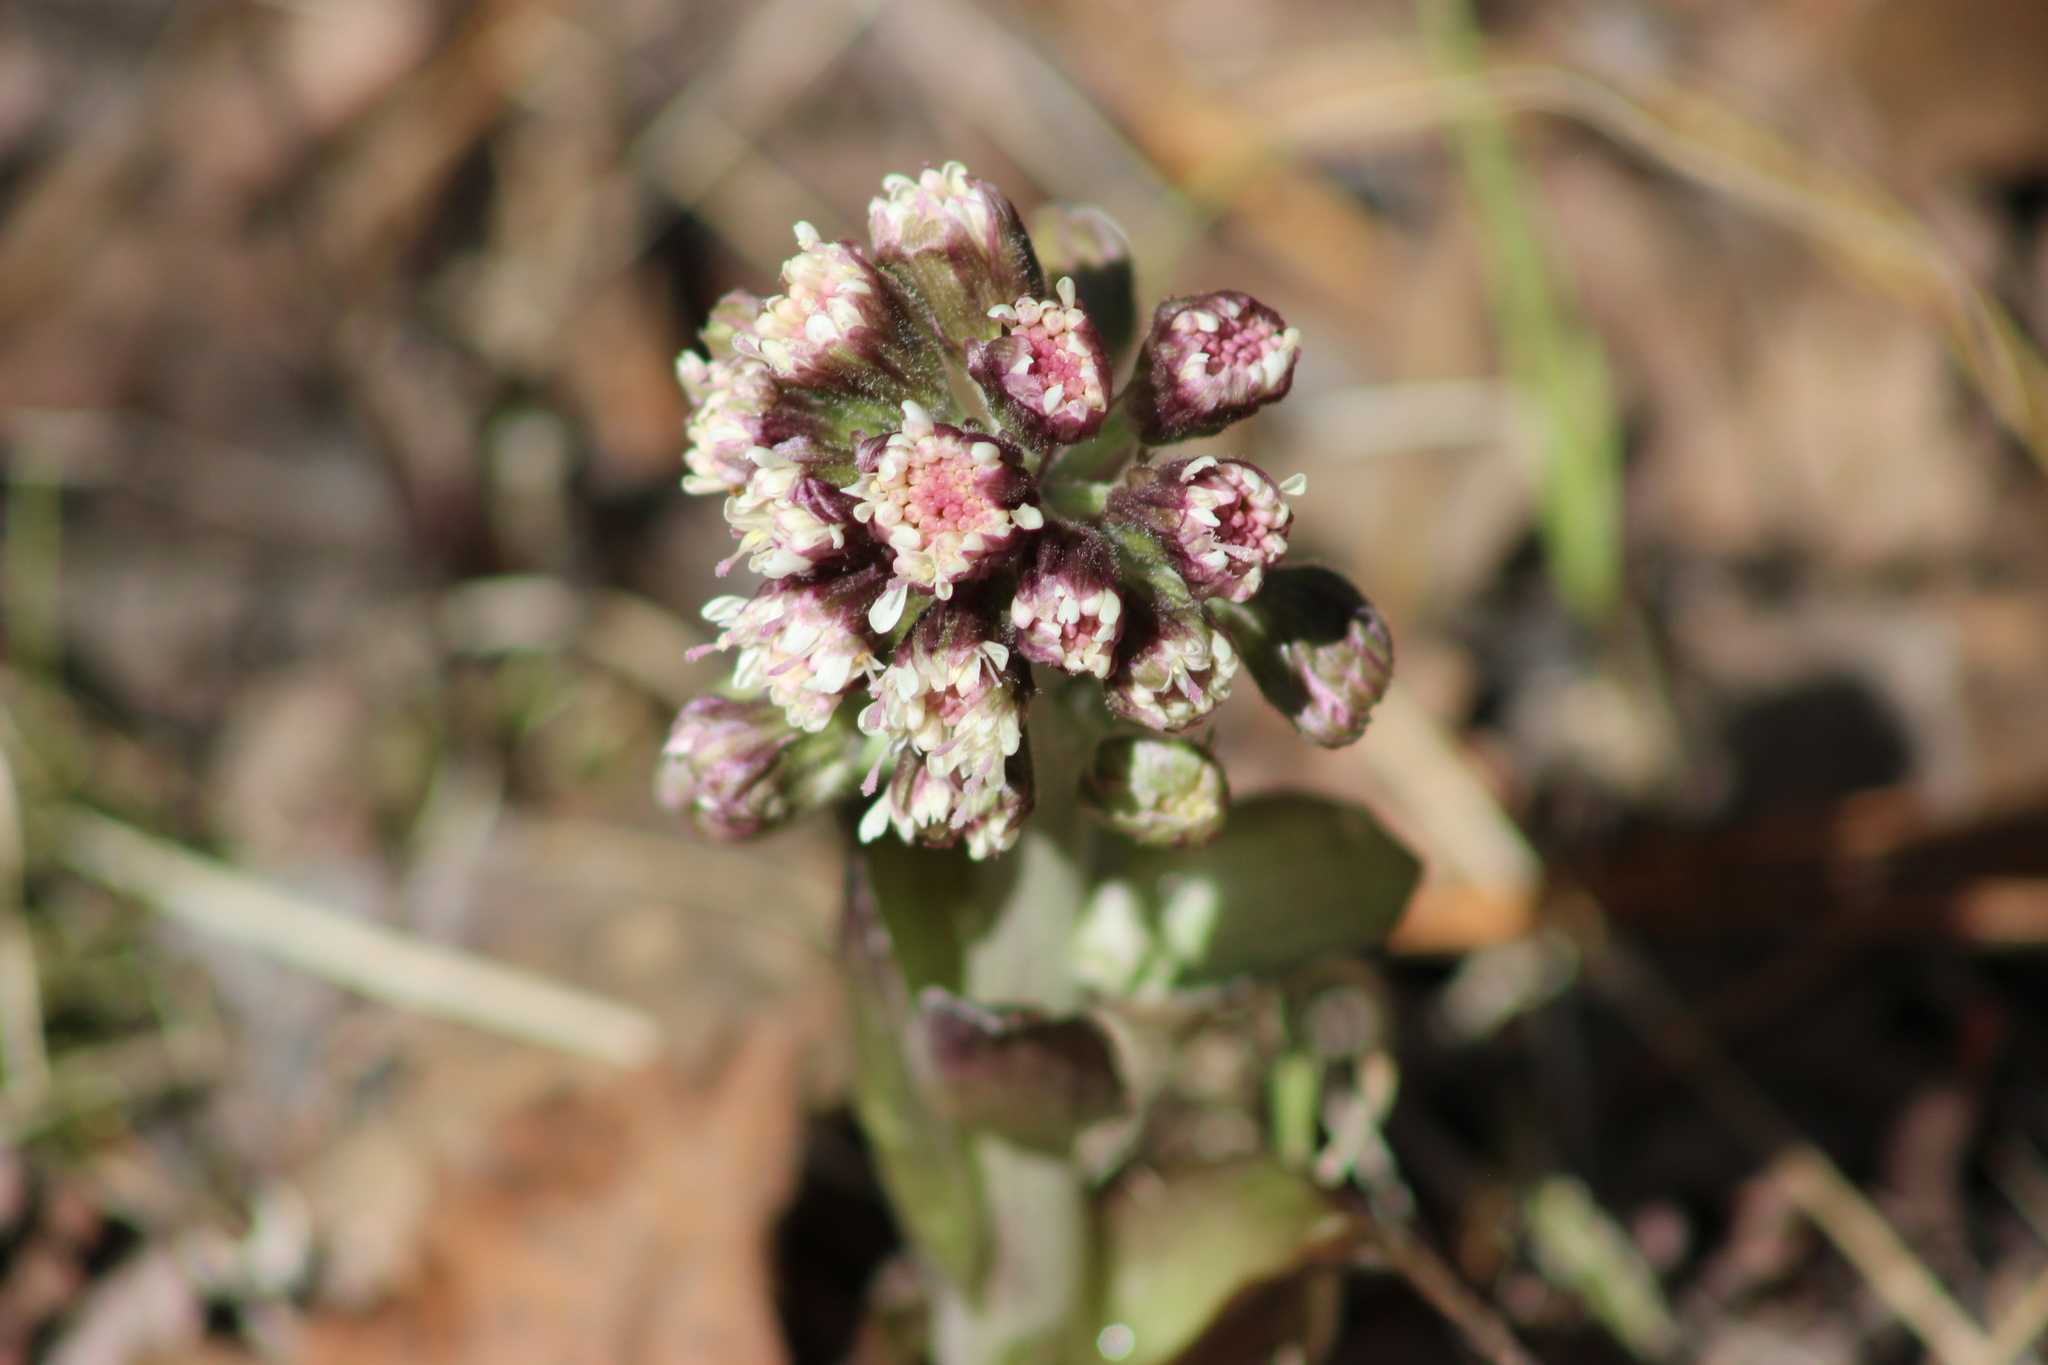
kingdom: Plantae
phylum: Tracheophyta
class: Magnoliopsida
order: Asterales
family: Asteraceae
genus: Petasites
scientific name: Petasites frigidus
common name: Arctic butterbur
